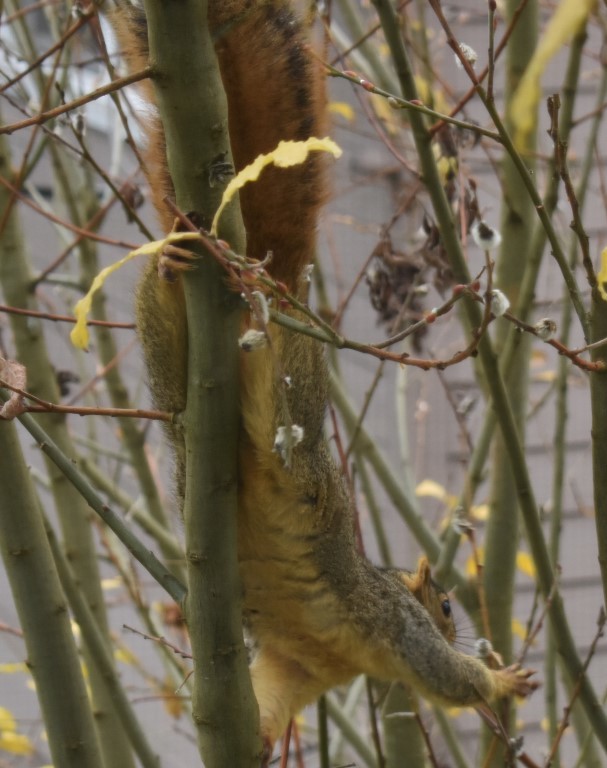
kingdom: Animalia
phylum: Chordata
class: Mammalia
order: Rodentia
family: Sciuridae
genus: Sciurus
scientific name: Sciurus niger
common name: Fox squirrel
